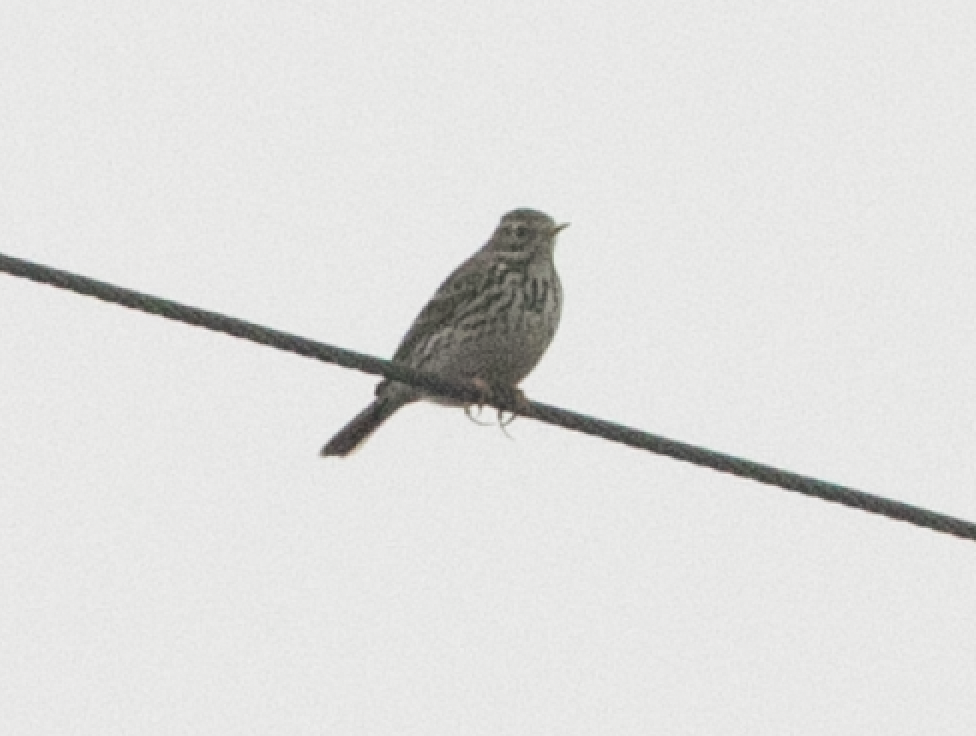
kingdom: Animalia
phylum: Chordata
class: Aves
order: Passeriformes
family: Motacillidae
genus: Anthus
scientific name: Anthus pratensis
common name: Meadow pipit
